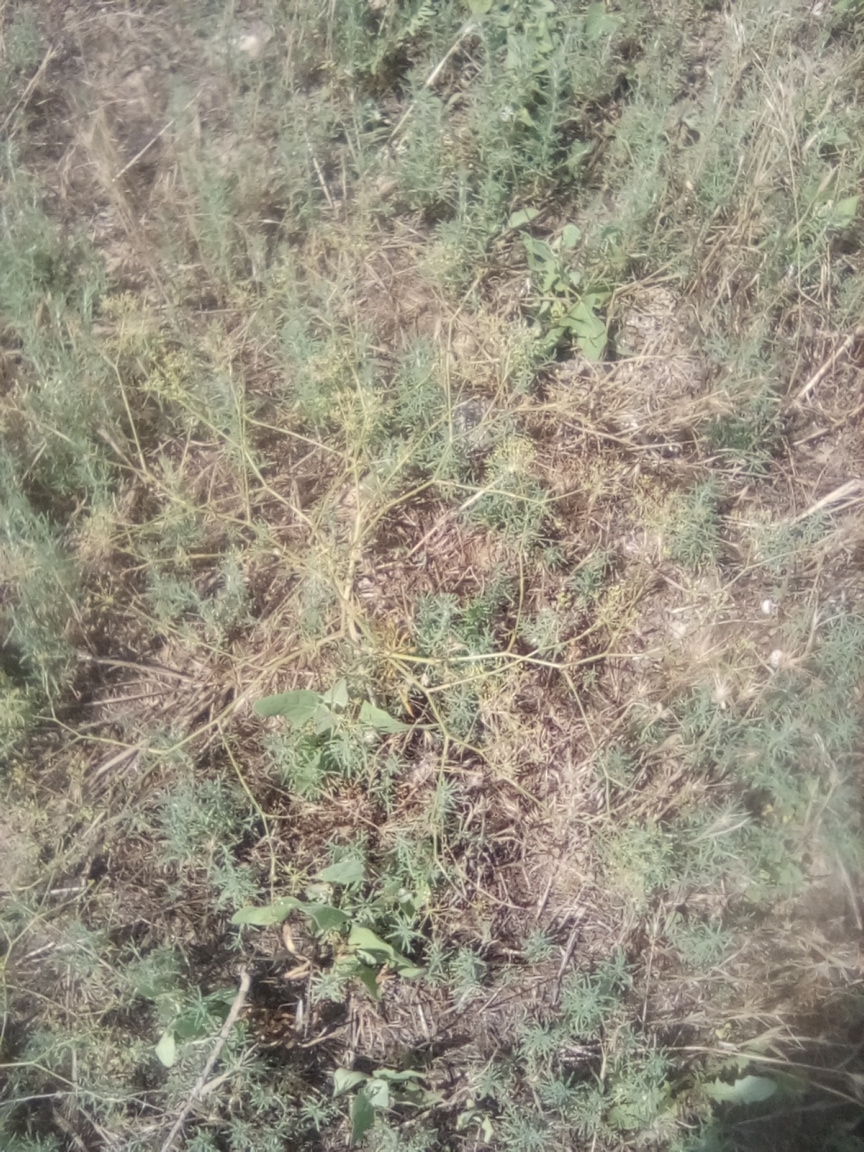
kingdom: Plantae
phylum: Tracheophyta
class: Magnoliopsida
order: Apiales
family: Apiaceae
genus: Seseli
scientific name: Seseli arenarium
